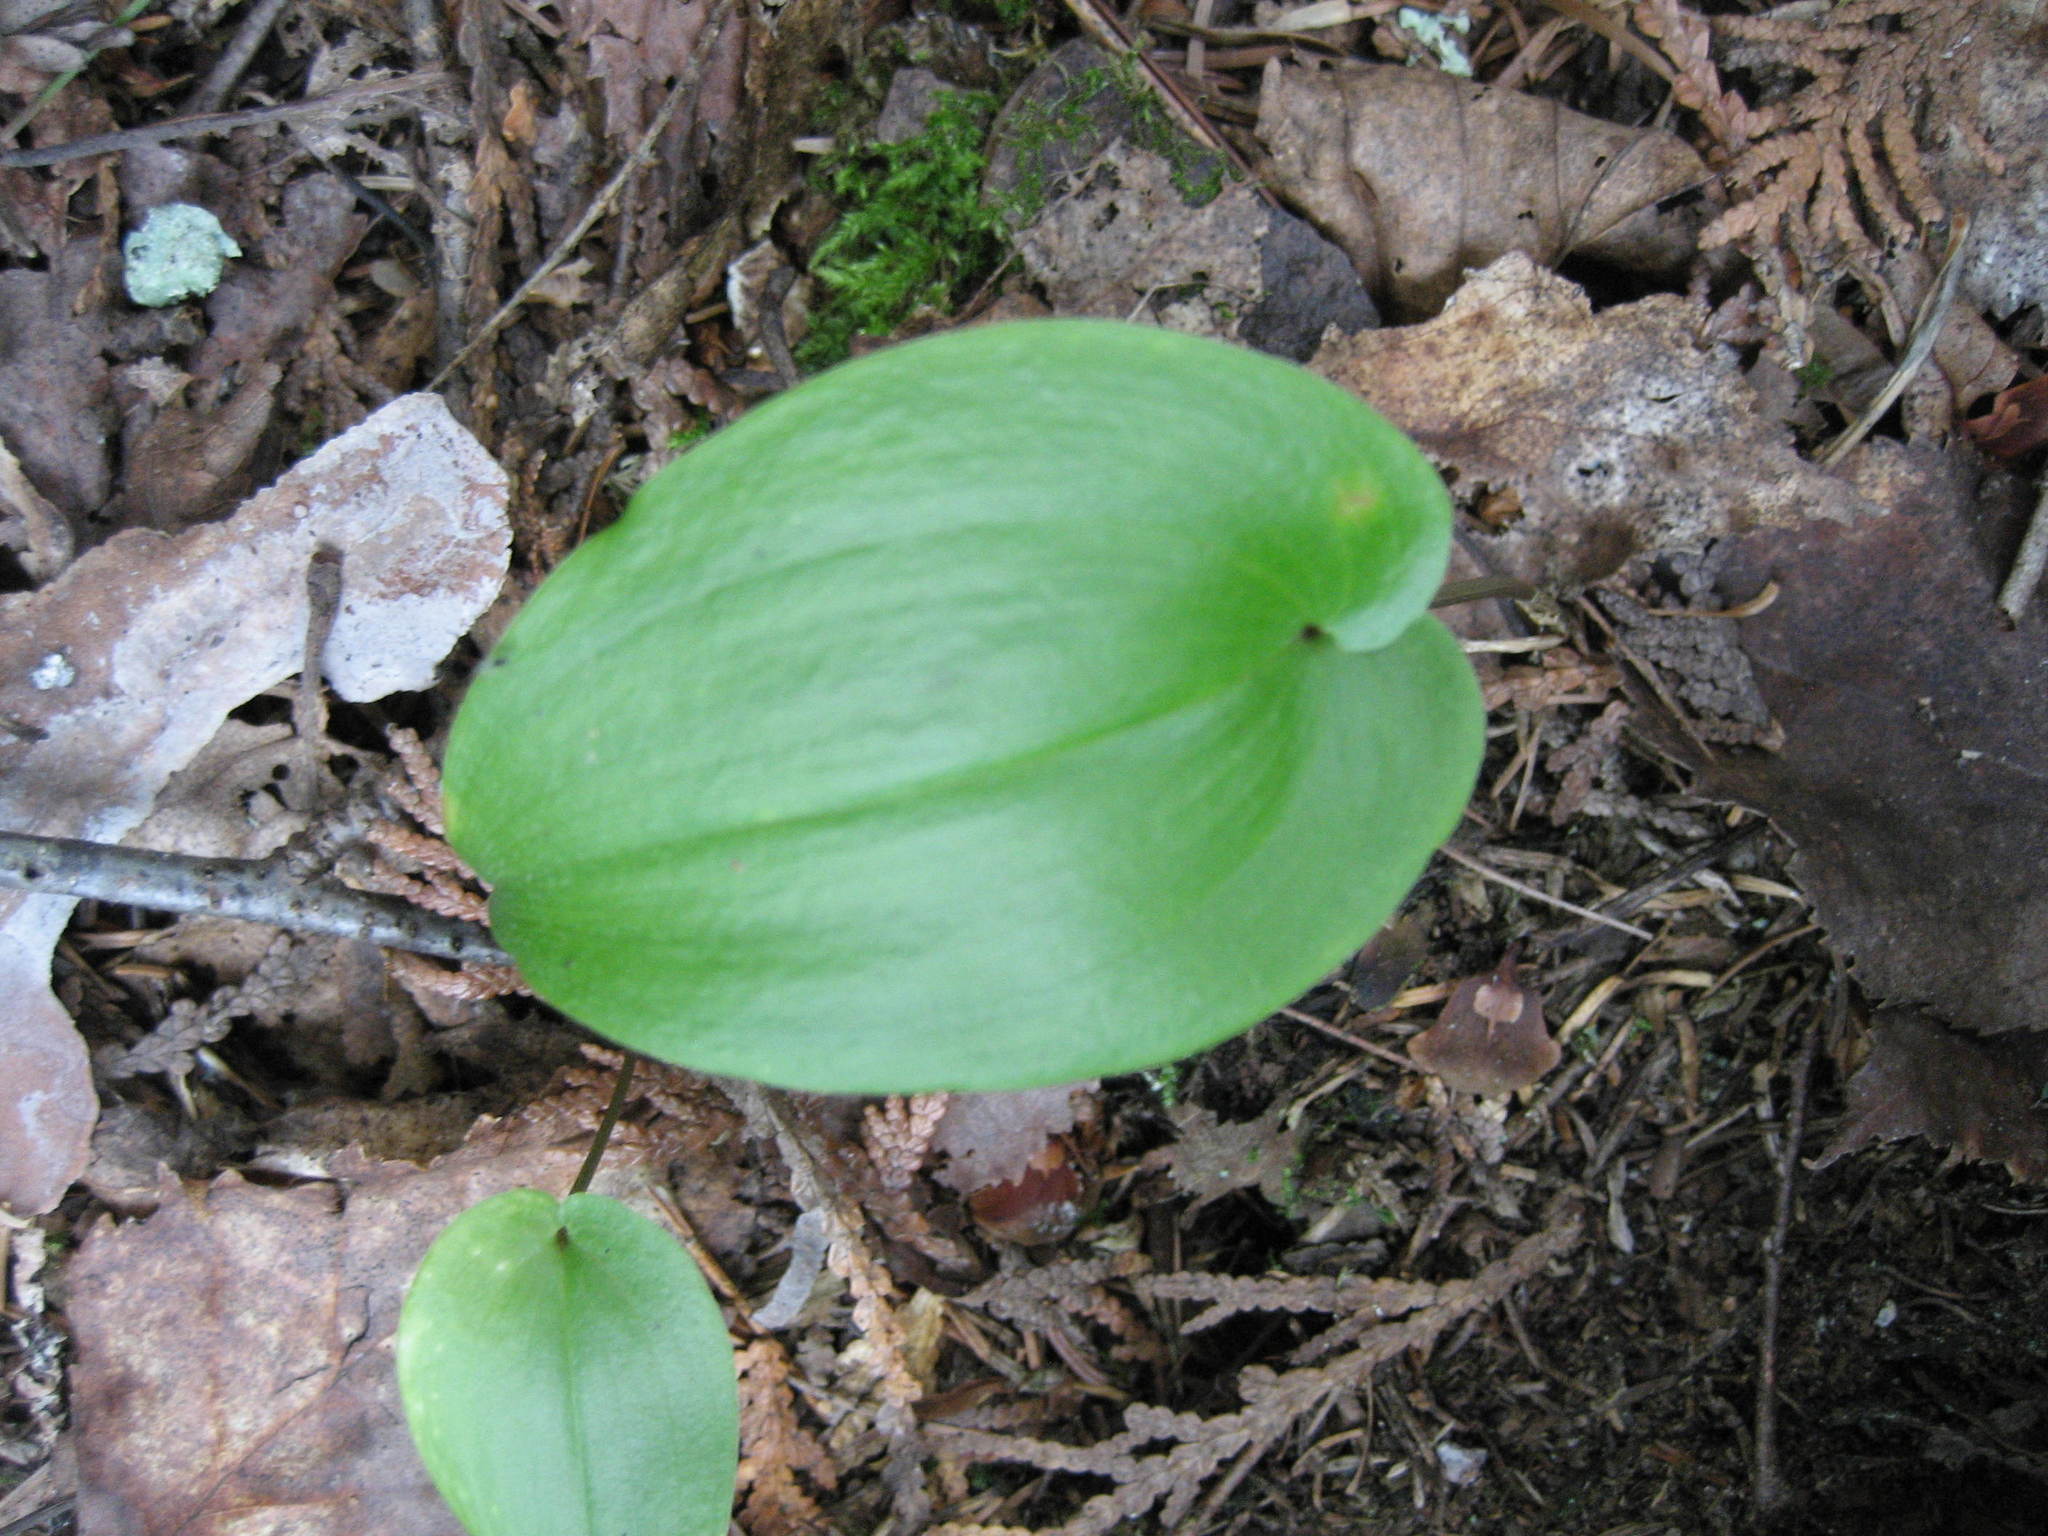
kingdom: Plantae
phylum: Tracheophyta
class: Liliopsida
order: Asparagales
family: Asparagaceae
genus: Maianthemum
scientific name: Maianthemum canadense
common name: False lily-of-the-valley
